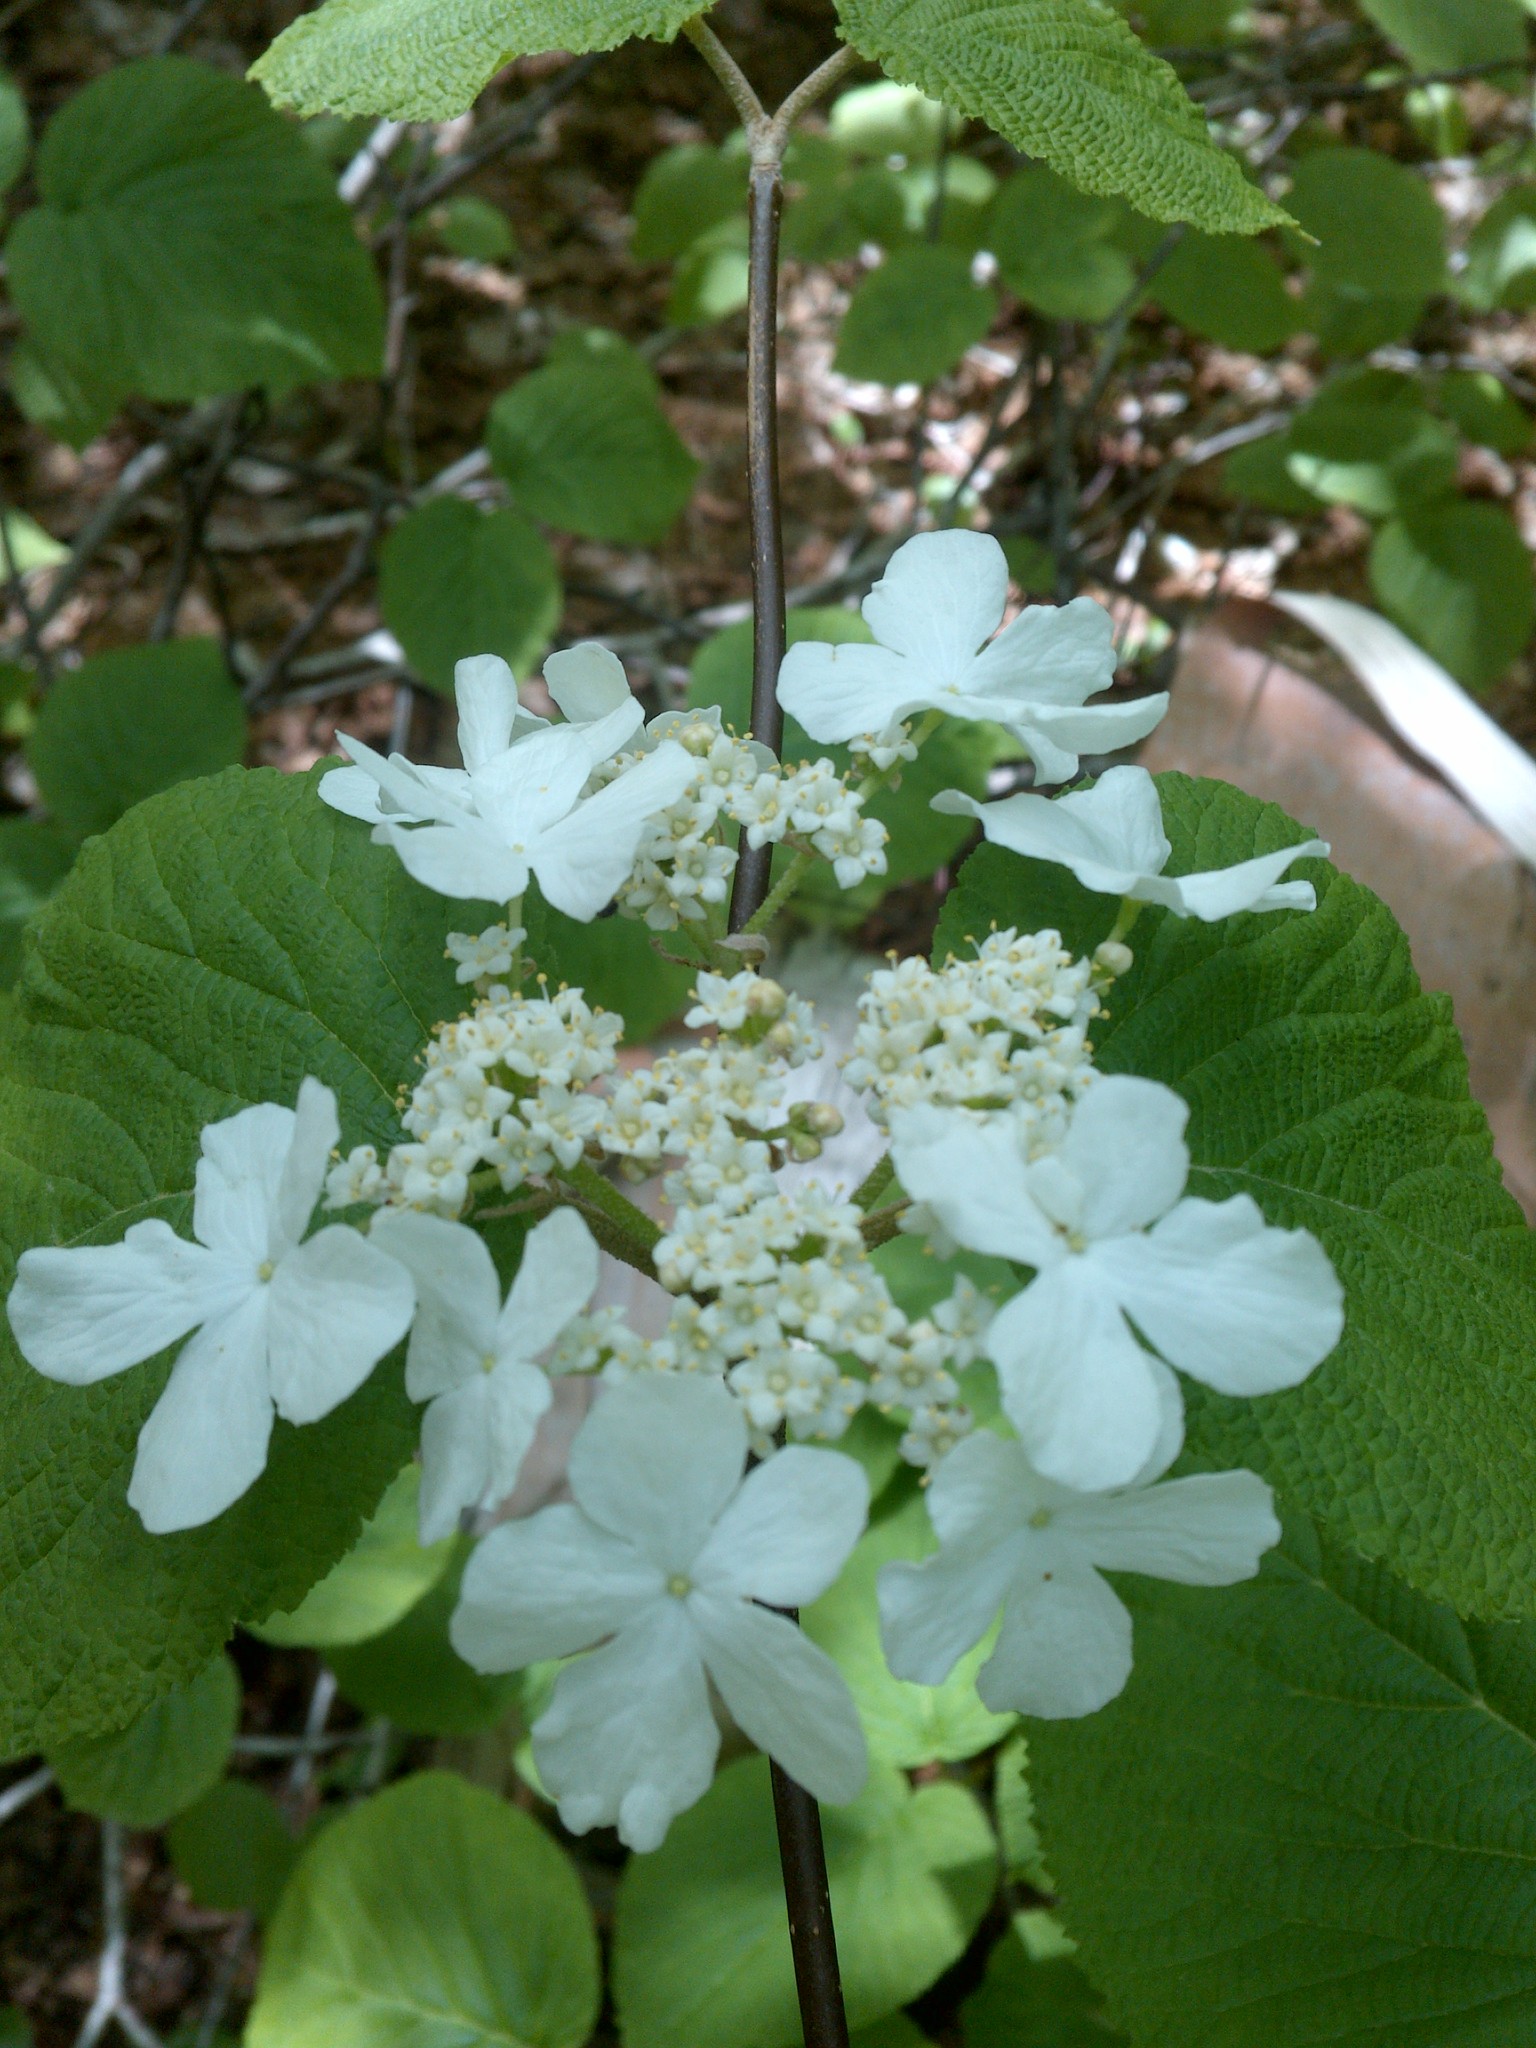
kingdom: Plantae
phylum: Tracheophyta
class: Magnoliopsida
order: Dipsacales
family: Viburnaceae
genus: Viburnum
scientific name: Viburnum lantanoides
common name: Hobblebush
